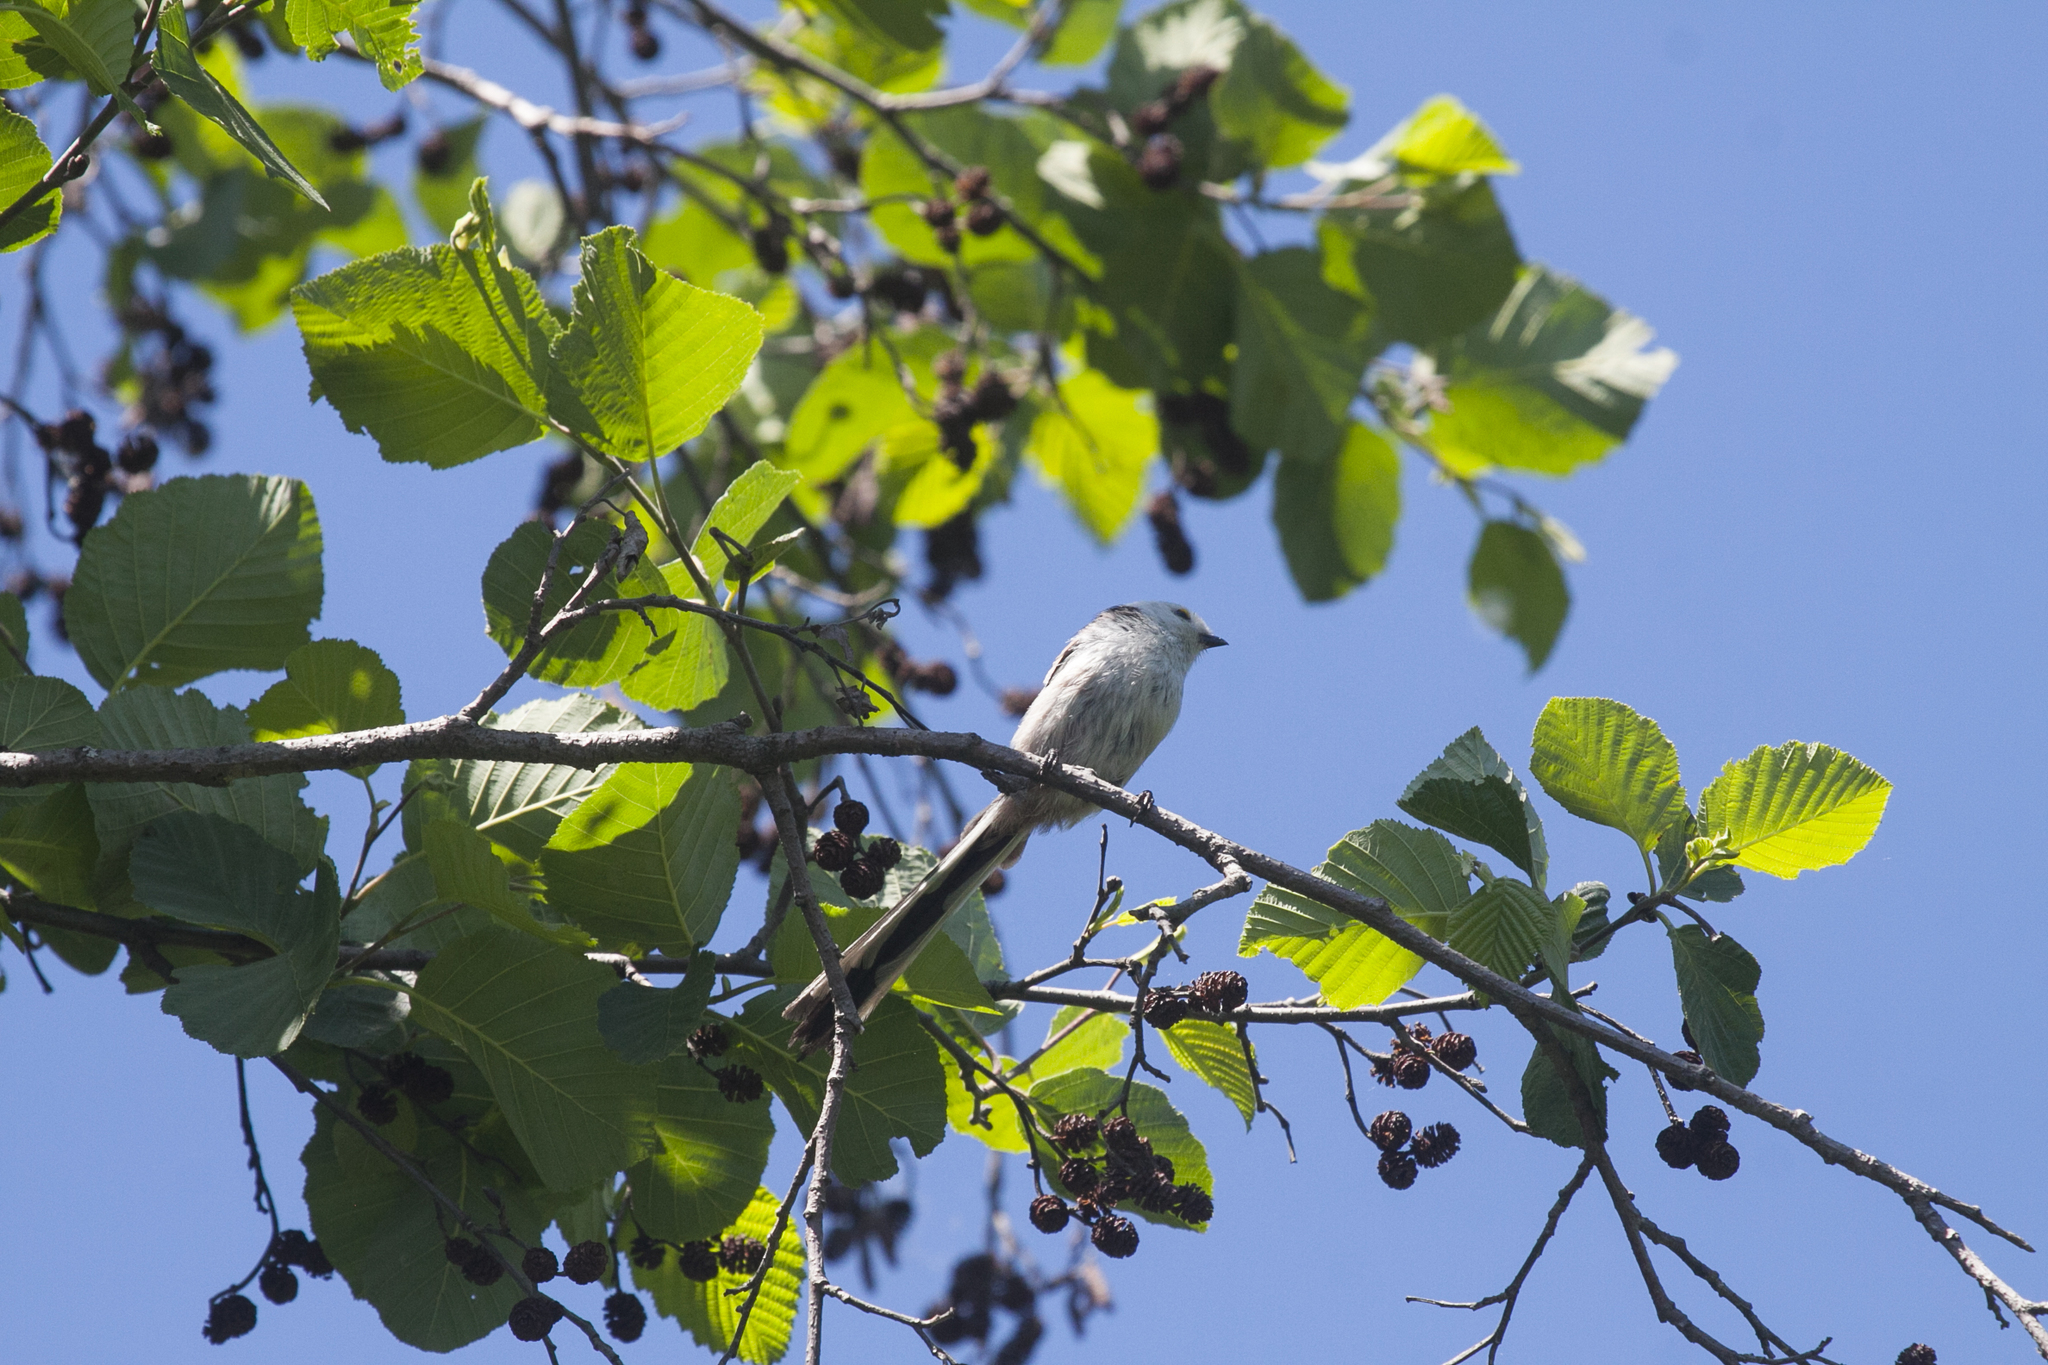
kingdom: Animalia
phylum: Chordata
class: Aves
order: Passeriformes
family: Aegithalidae
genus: Aegithalos
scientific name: Aegithalos caudatus
